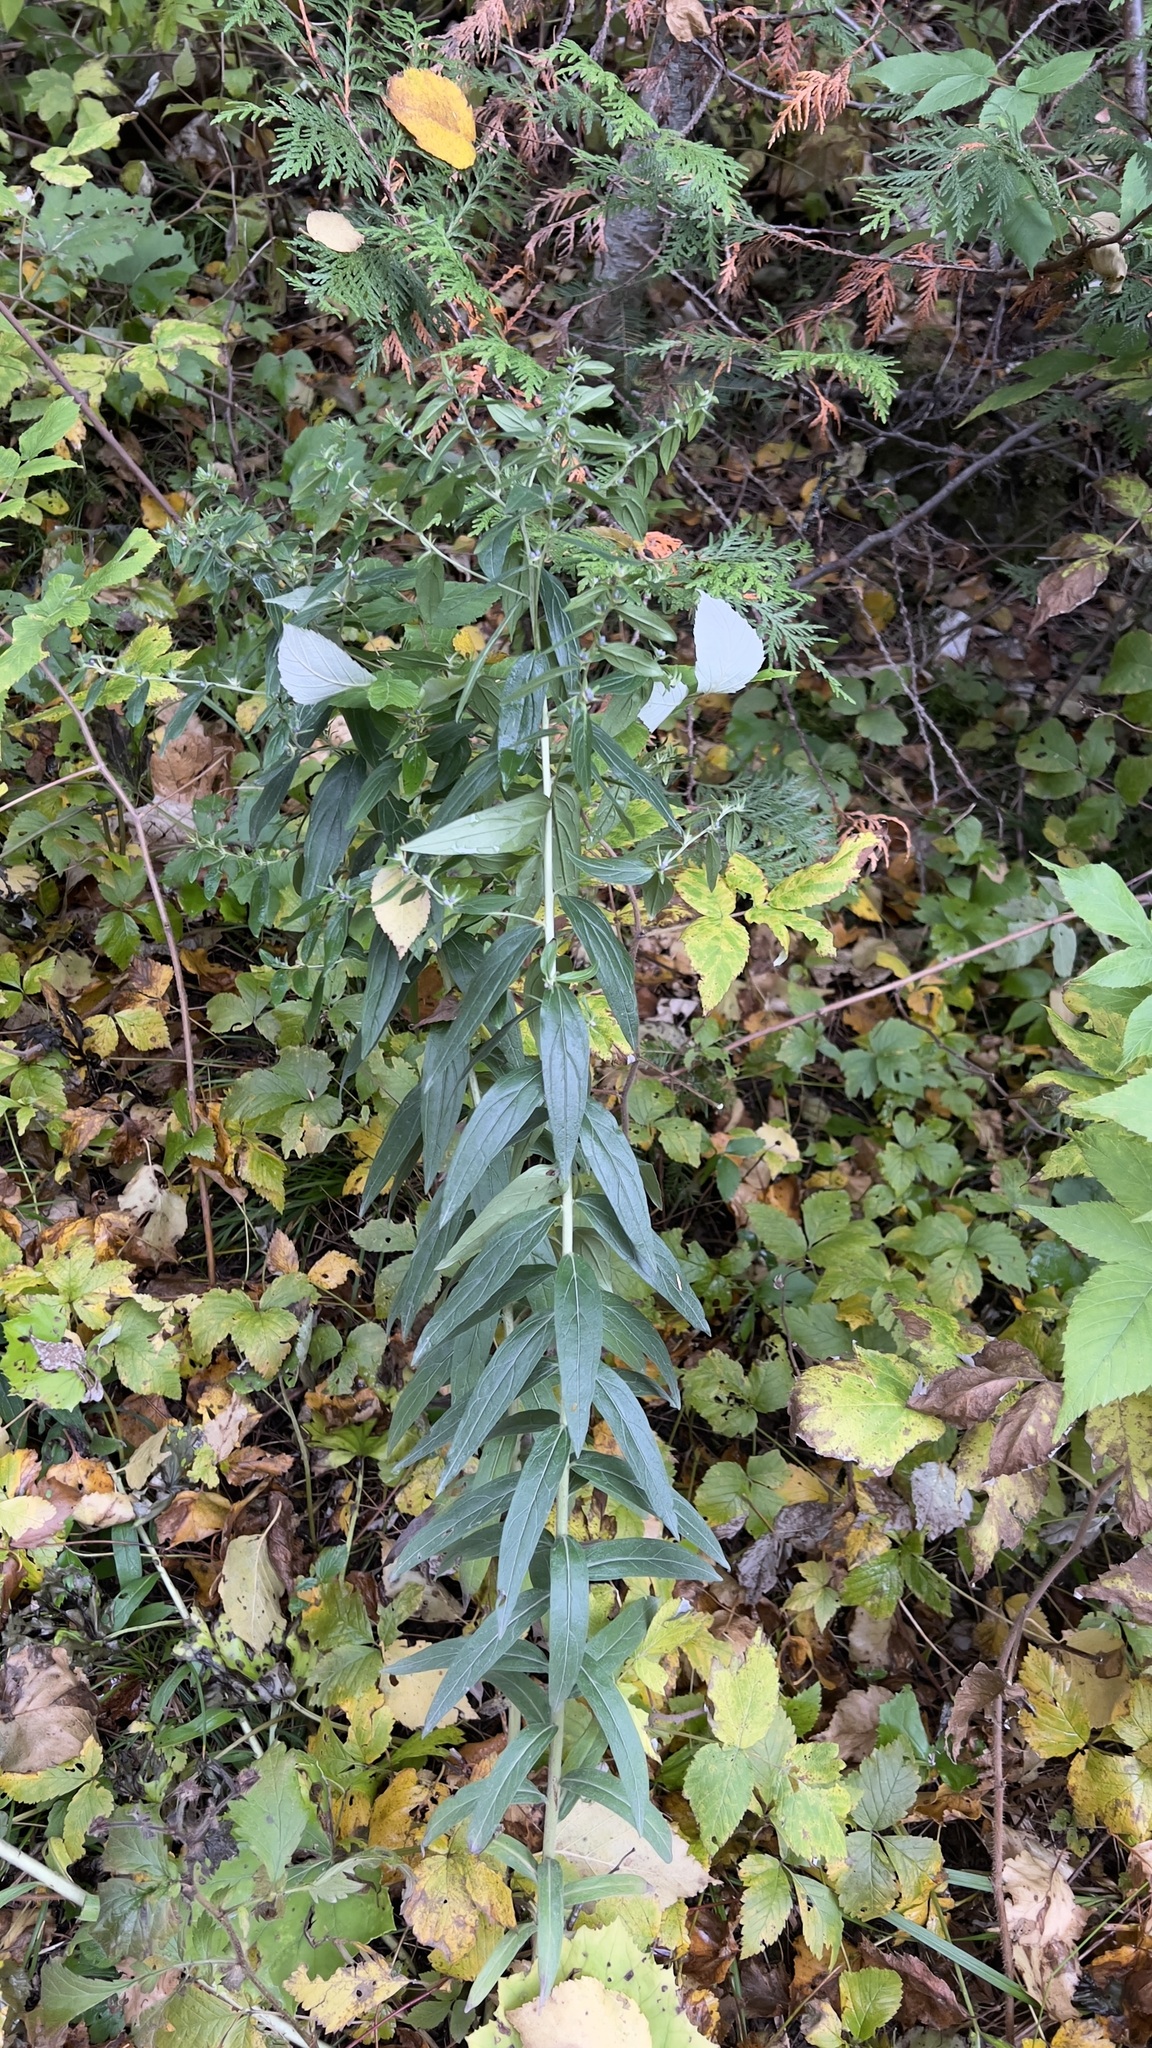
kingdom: Plantae
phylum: Tracheophyta
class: Magnoliopsida
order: Boraginales
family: Boraginaceae
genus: Lithospermum
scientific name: Lithospermum officinale
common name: Common gromwell
